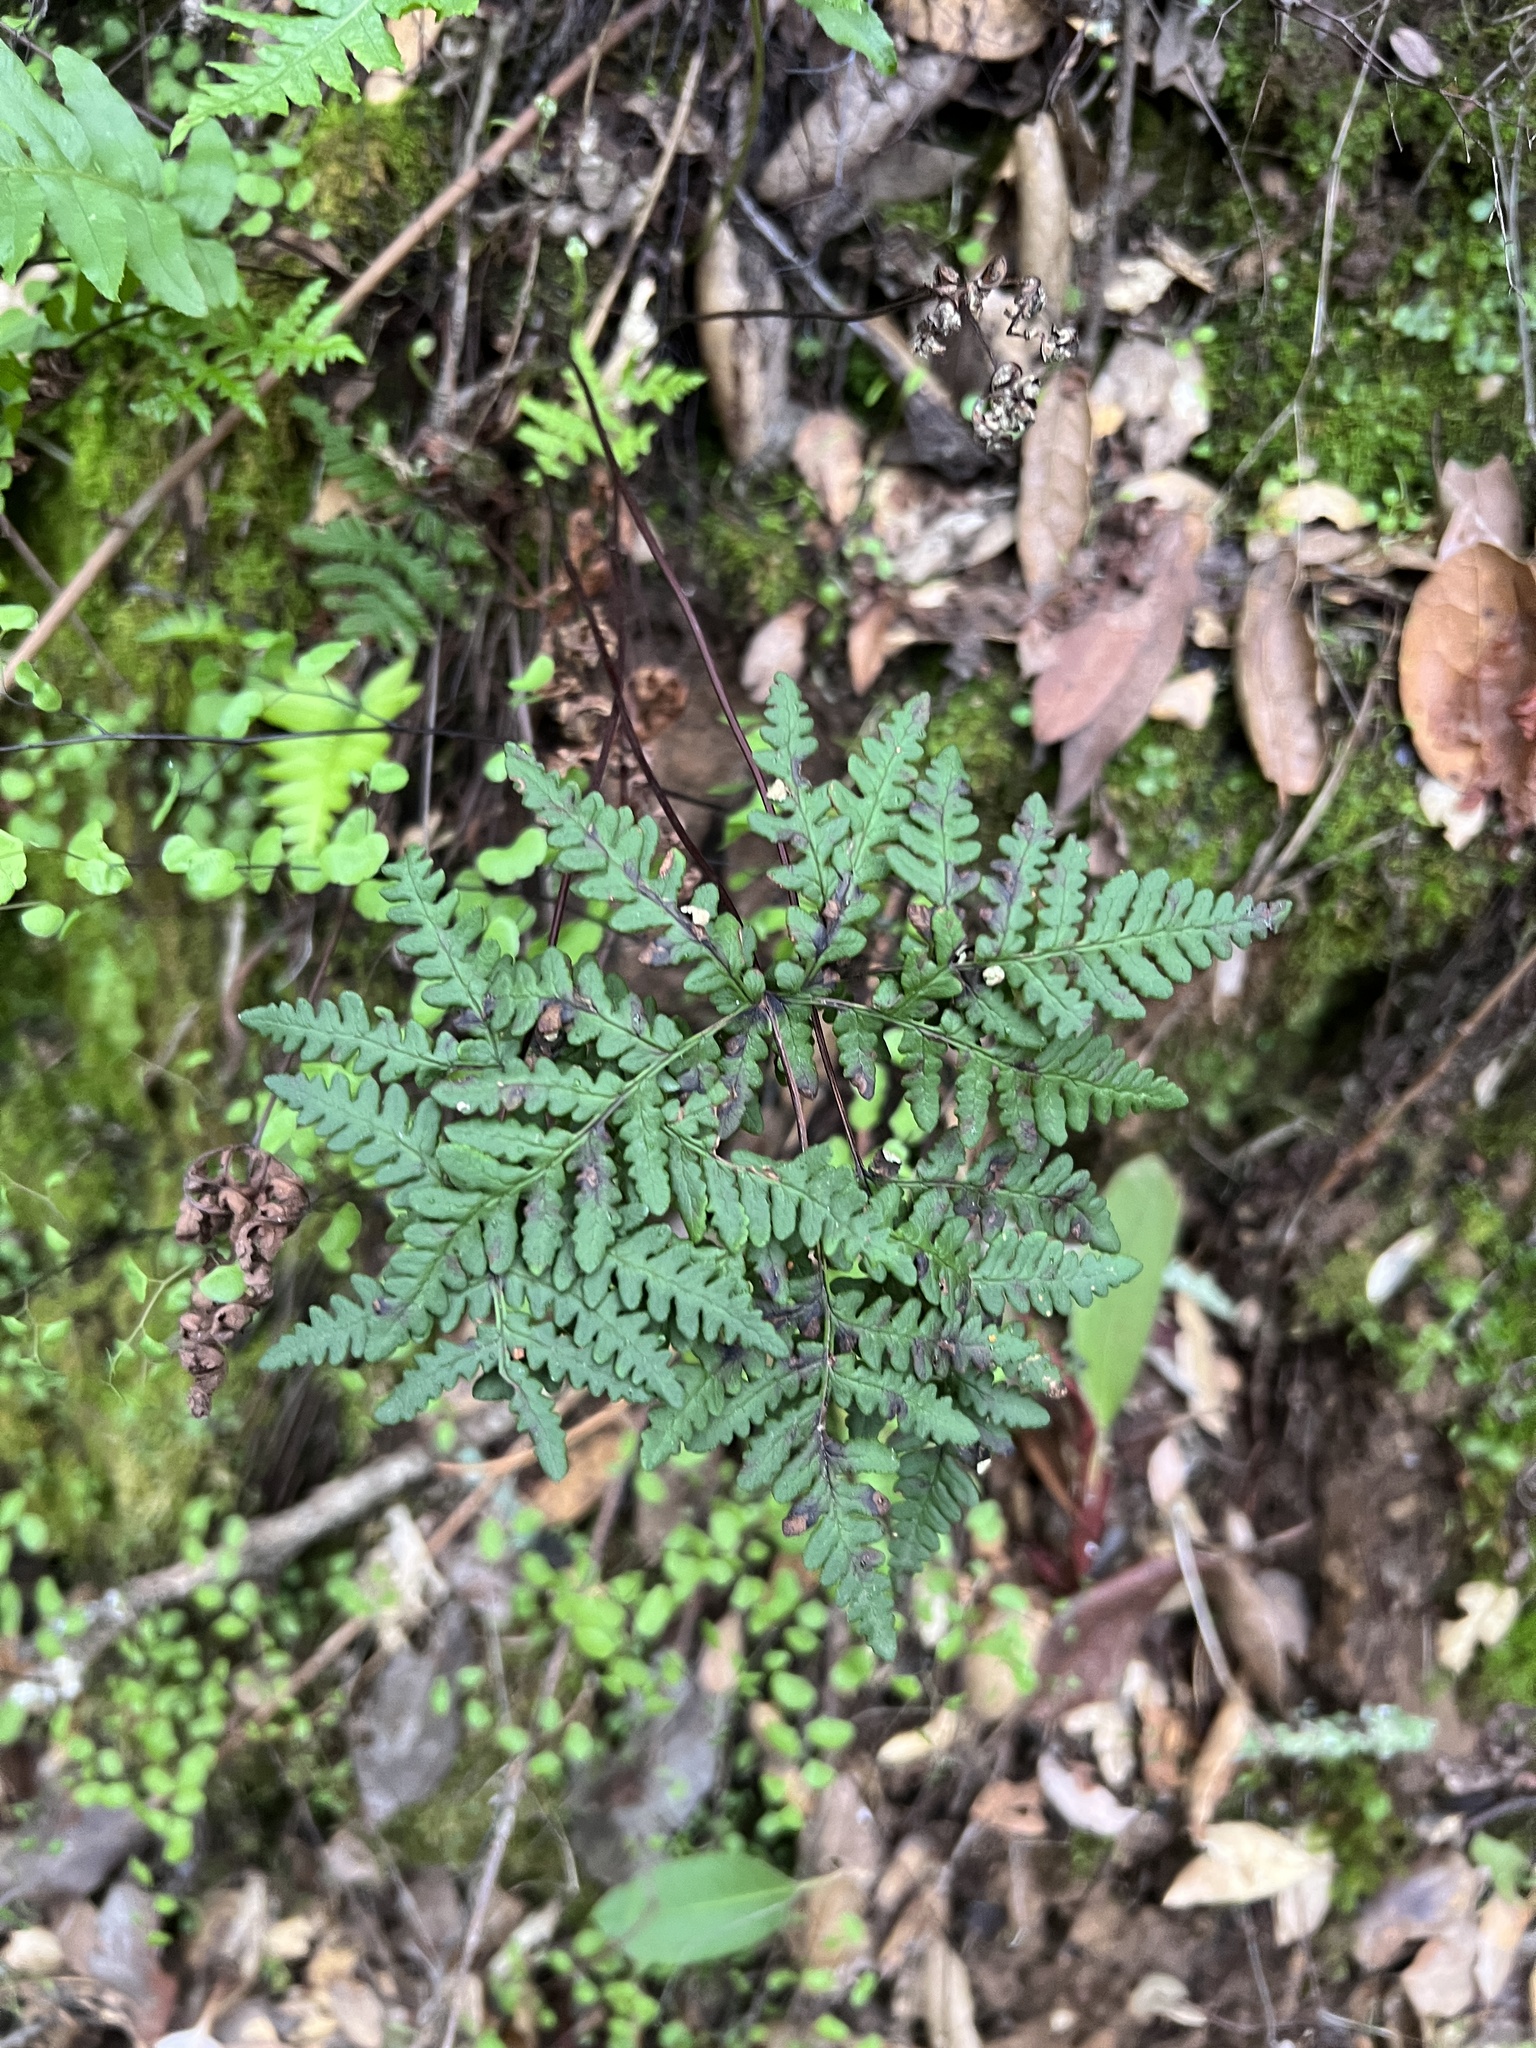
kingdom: Plantae
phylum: Tracheophyta
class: Polypodiopsida
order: Polypodiales
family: Pteridaceae
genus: Pentagramma
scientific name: Pentagramma triangularis
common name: Gold fern
